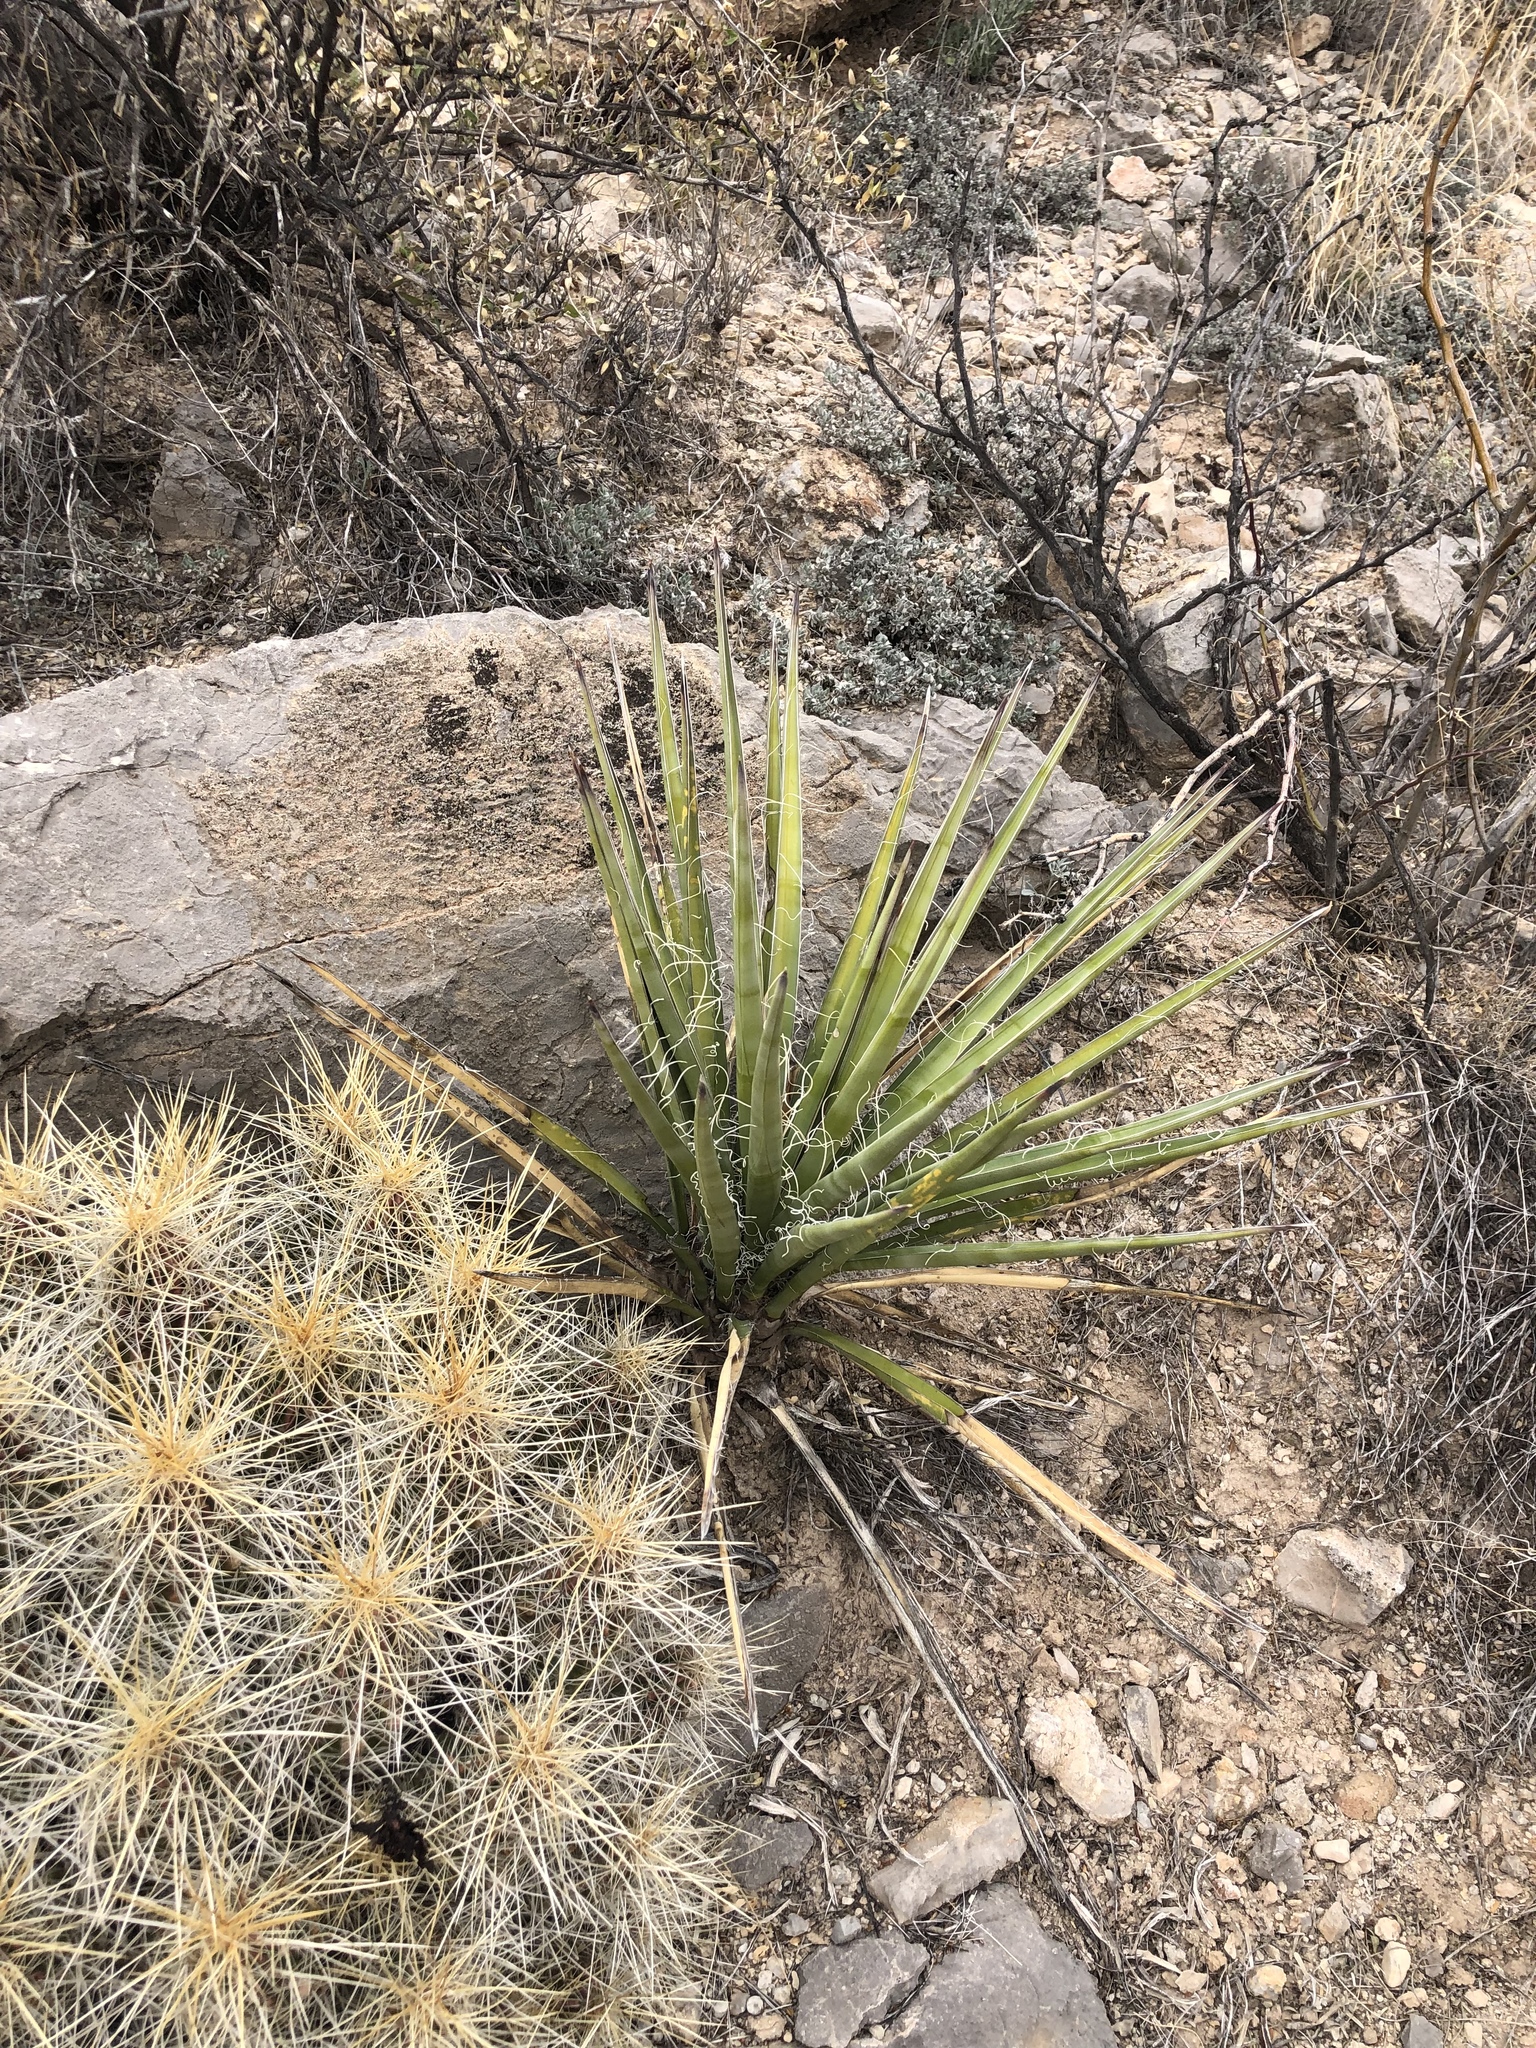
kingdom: Plantae
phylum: Tracheophyta
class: Liliopsida
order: Asparagales
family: Asparagaceae
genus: Yucca
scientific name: Yucca baccata
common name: Banana yucca
